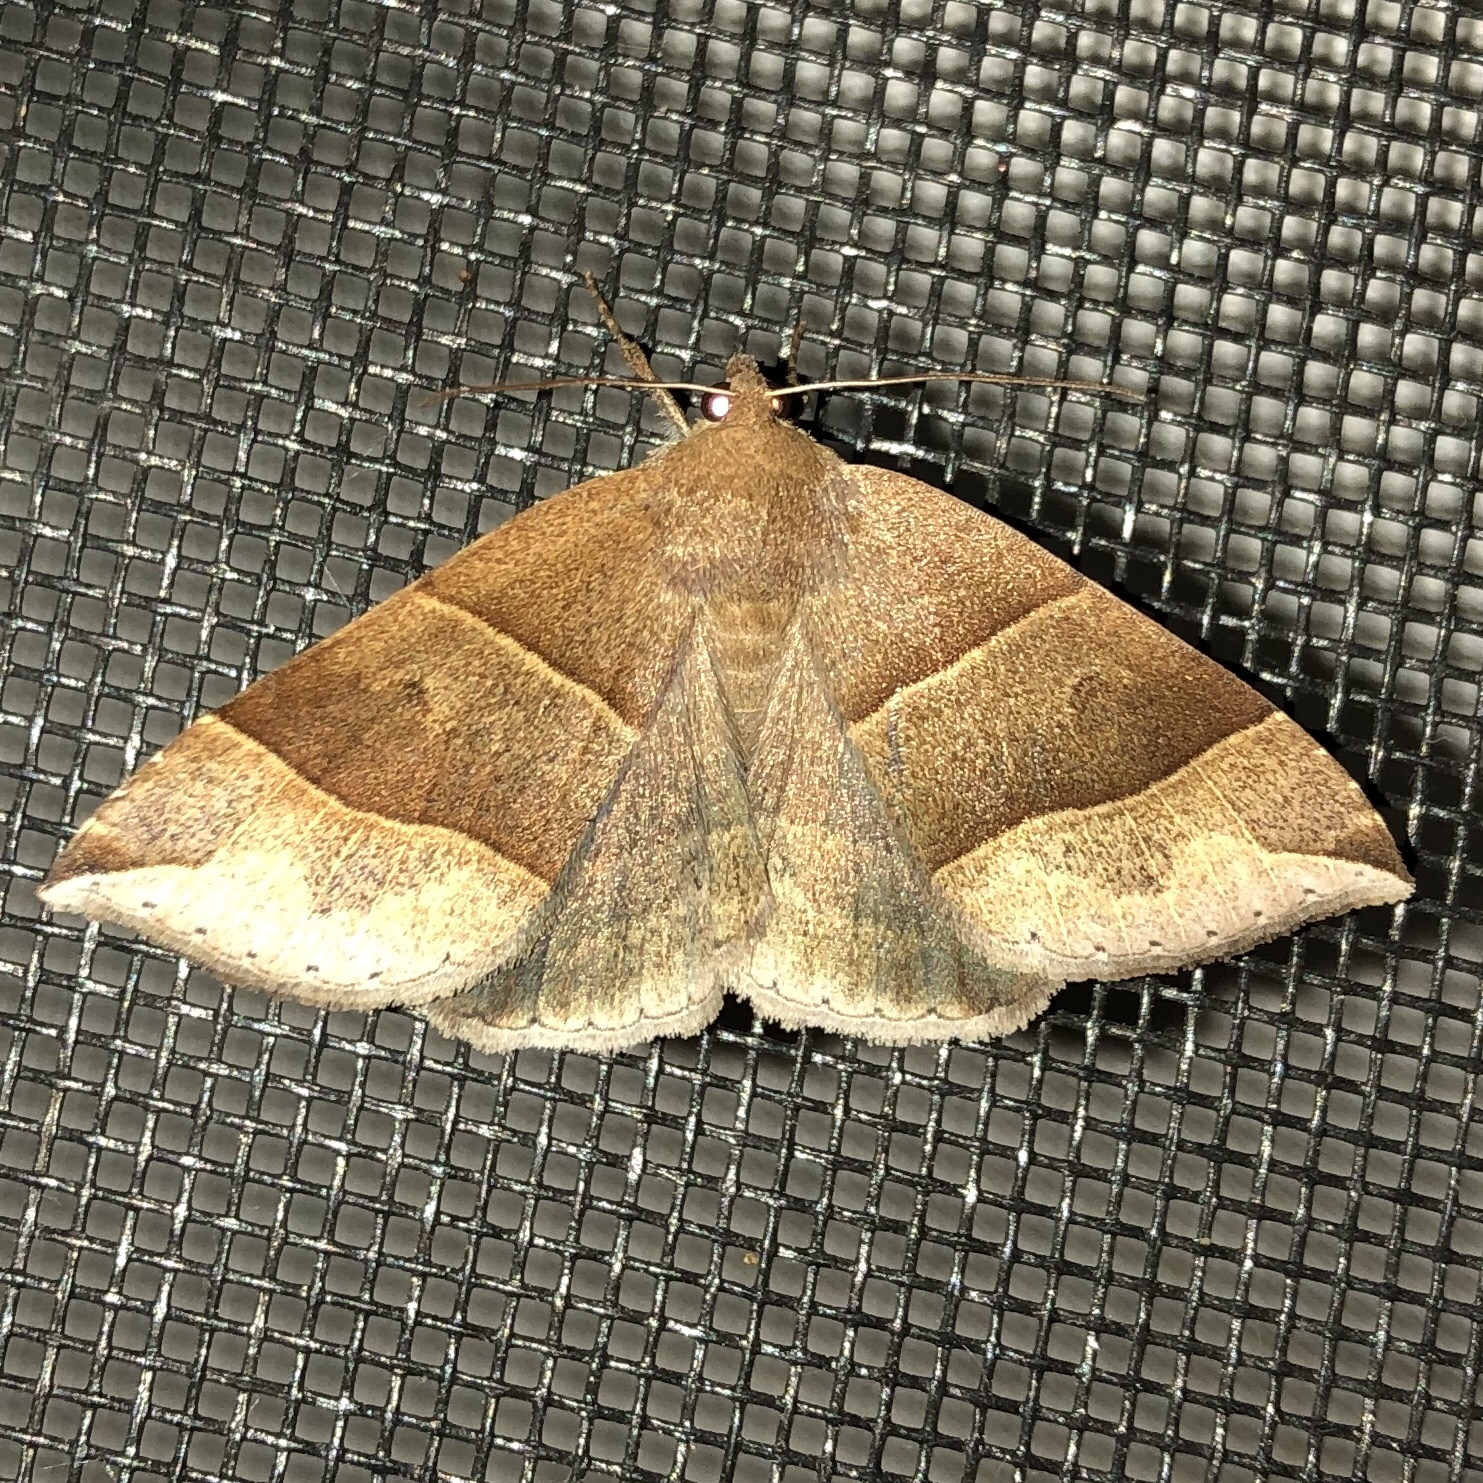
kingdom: Animalia
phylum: Arthropoda
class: Insecta
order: Lepidoptera
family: Erebidae
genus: Parallelia
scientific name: Parallelia bistriaris
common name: Maple looper moth
